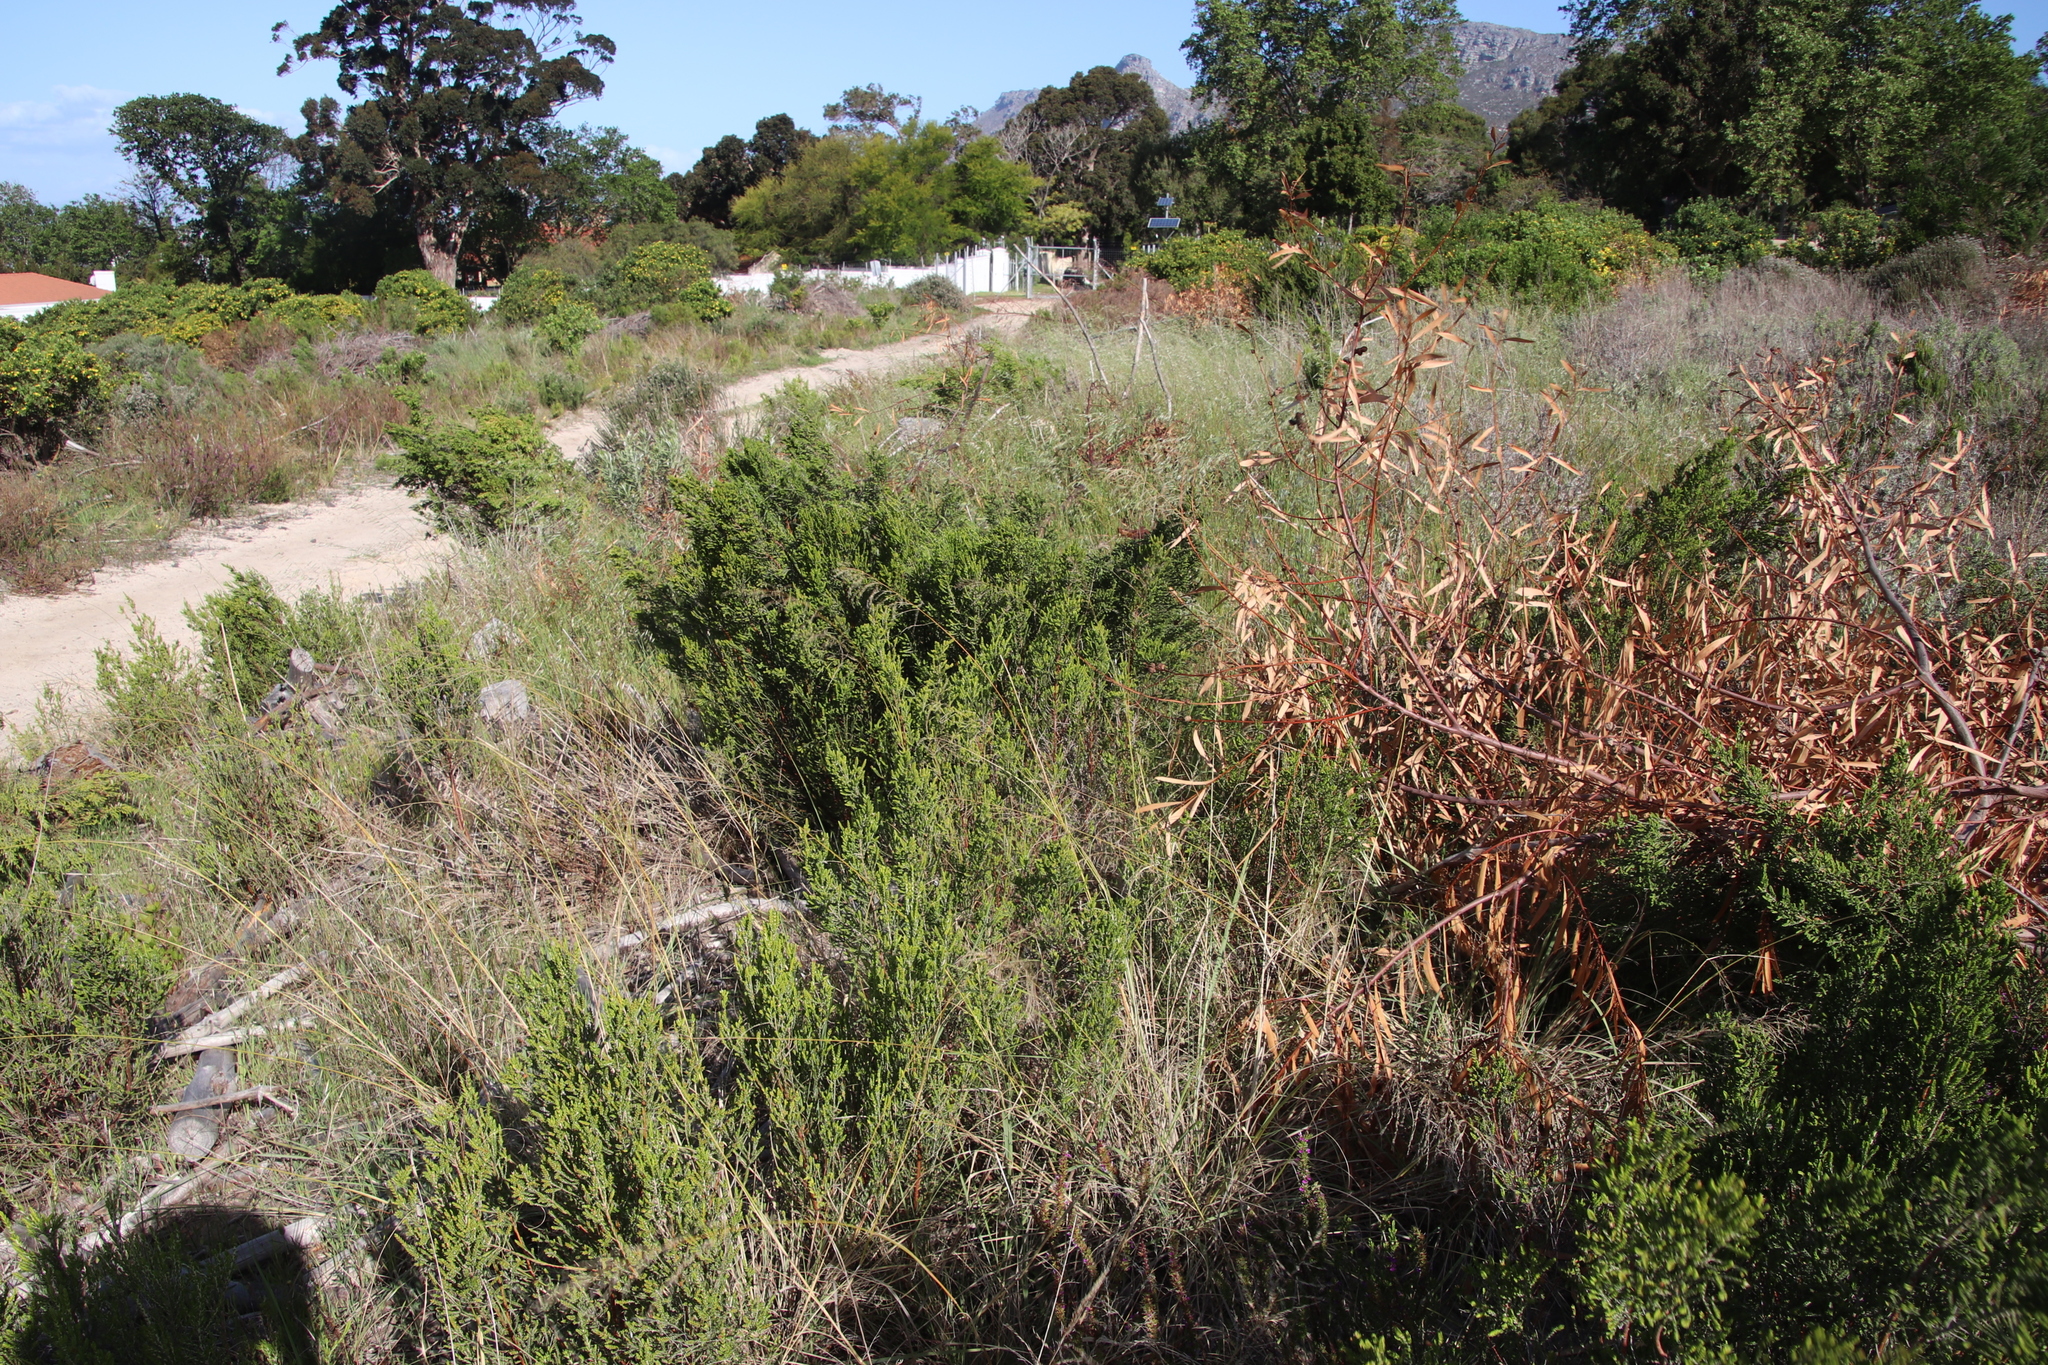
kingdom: Plantae
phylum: Tracheophyta
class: Liliopsida
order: Poales
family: Poaceae
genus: Eragrostis
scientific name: Eragrostis curvula
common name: African love-grass
